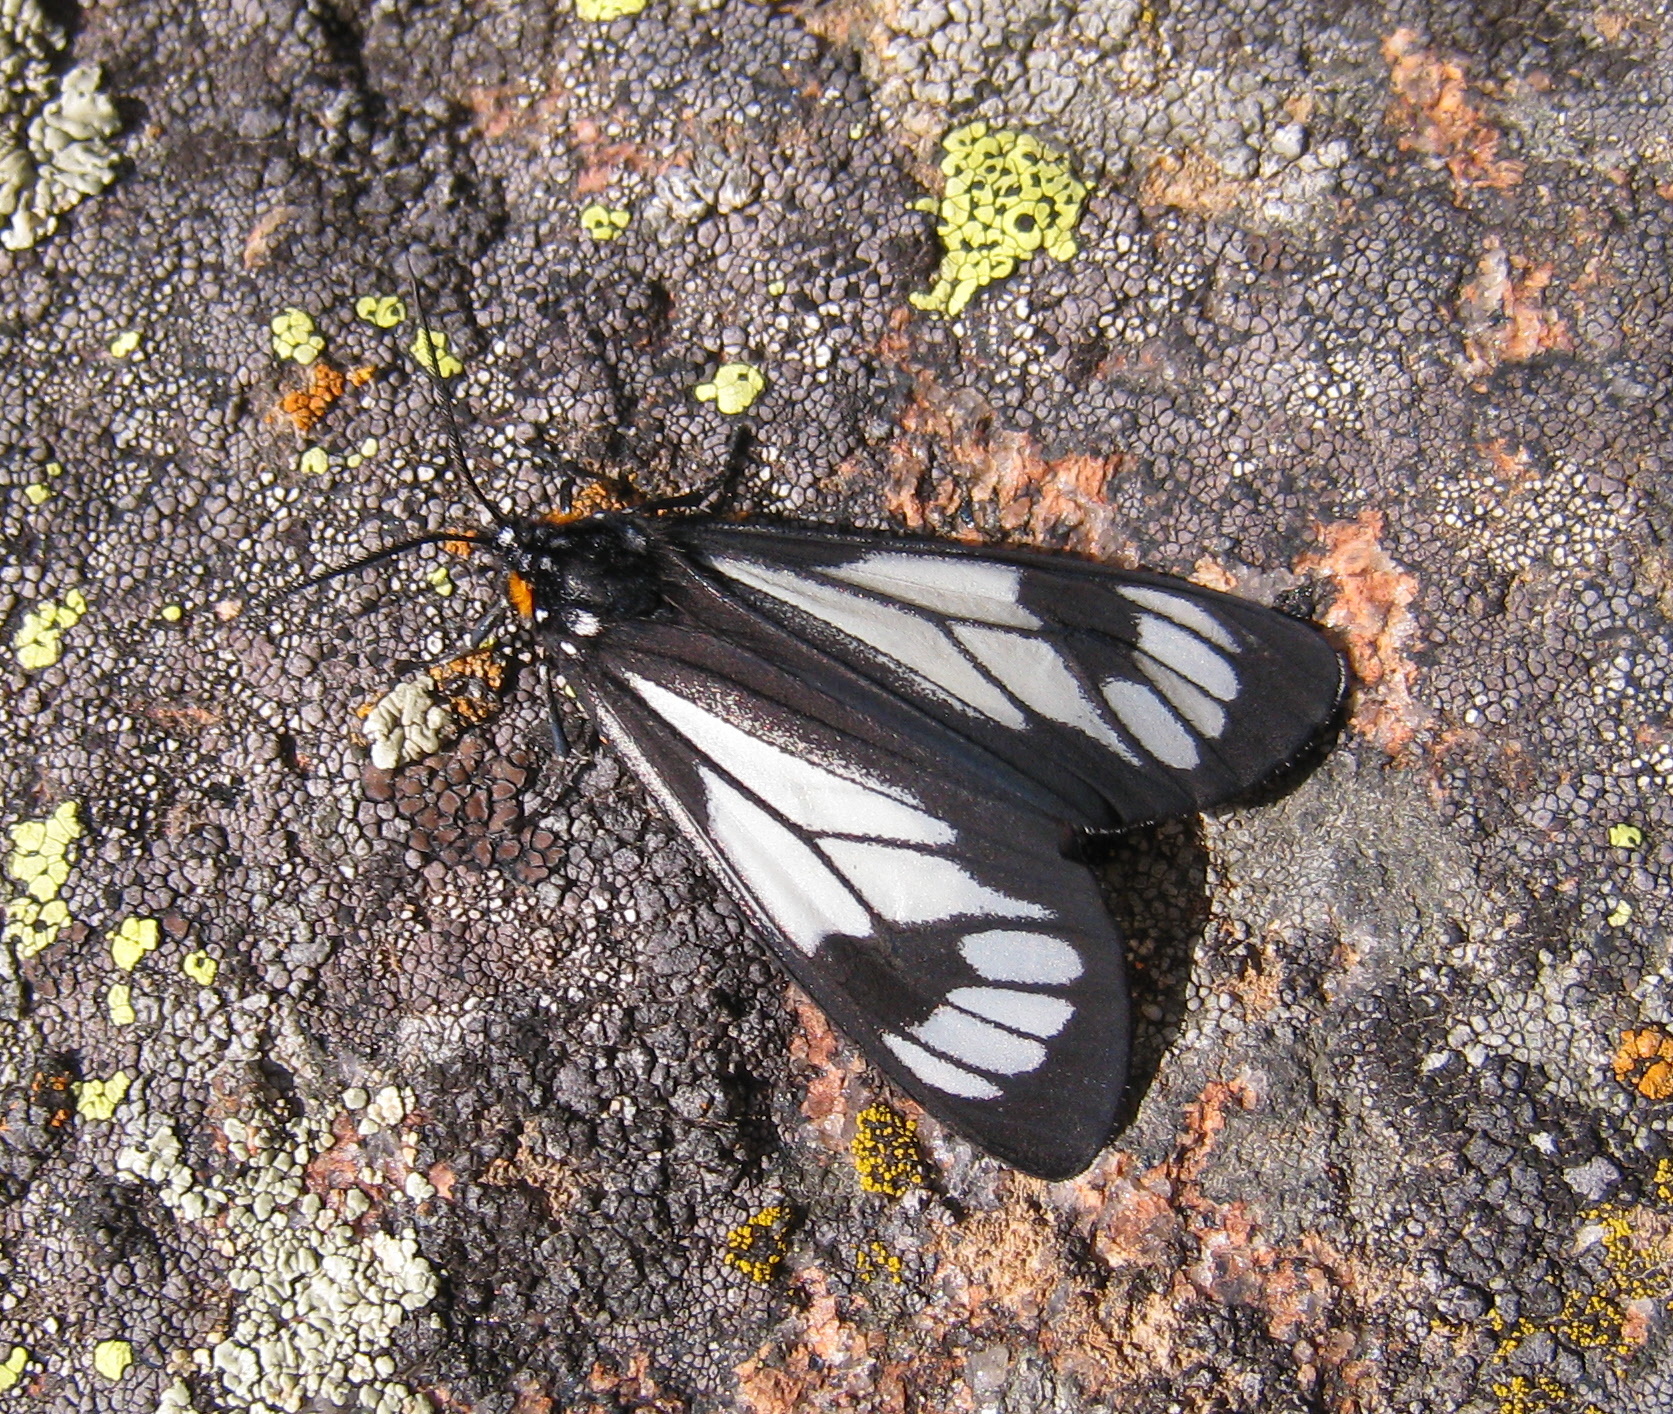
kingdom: Animalia
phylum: Arthropoda
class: Insecta
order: Lepidoptera
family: Erebidae
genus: Gnophaela
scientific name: Gnophaela vermiculata
